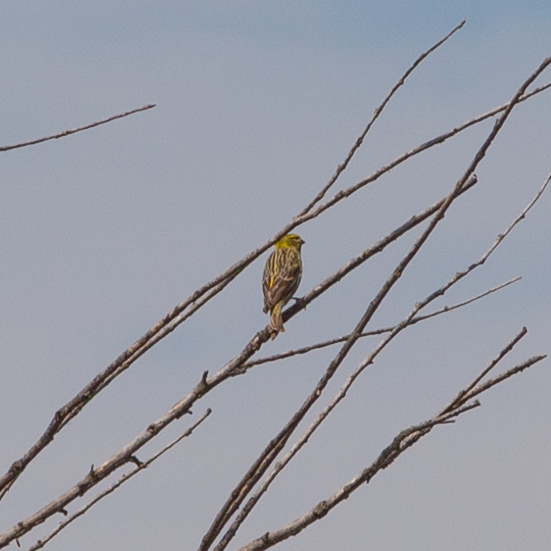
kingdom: Animalia
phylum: Chordata
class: Aves
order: Passeriformes
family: Fringillidae
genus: Serinus
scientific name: Serinus serinus
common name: European serin
